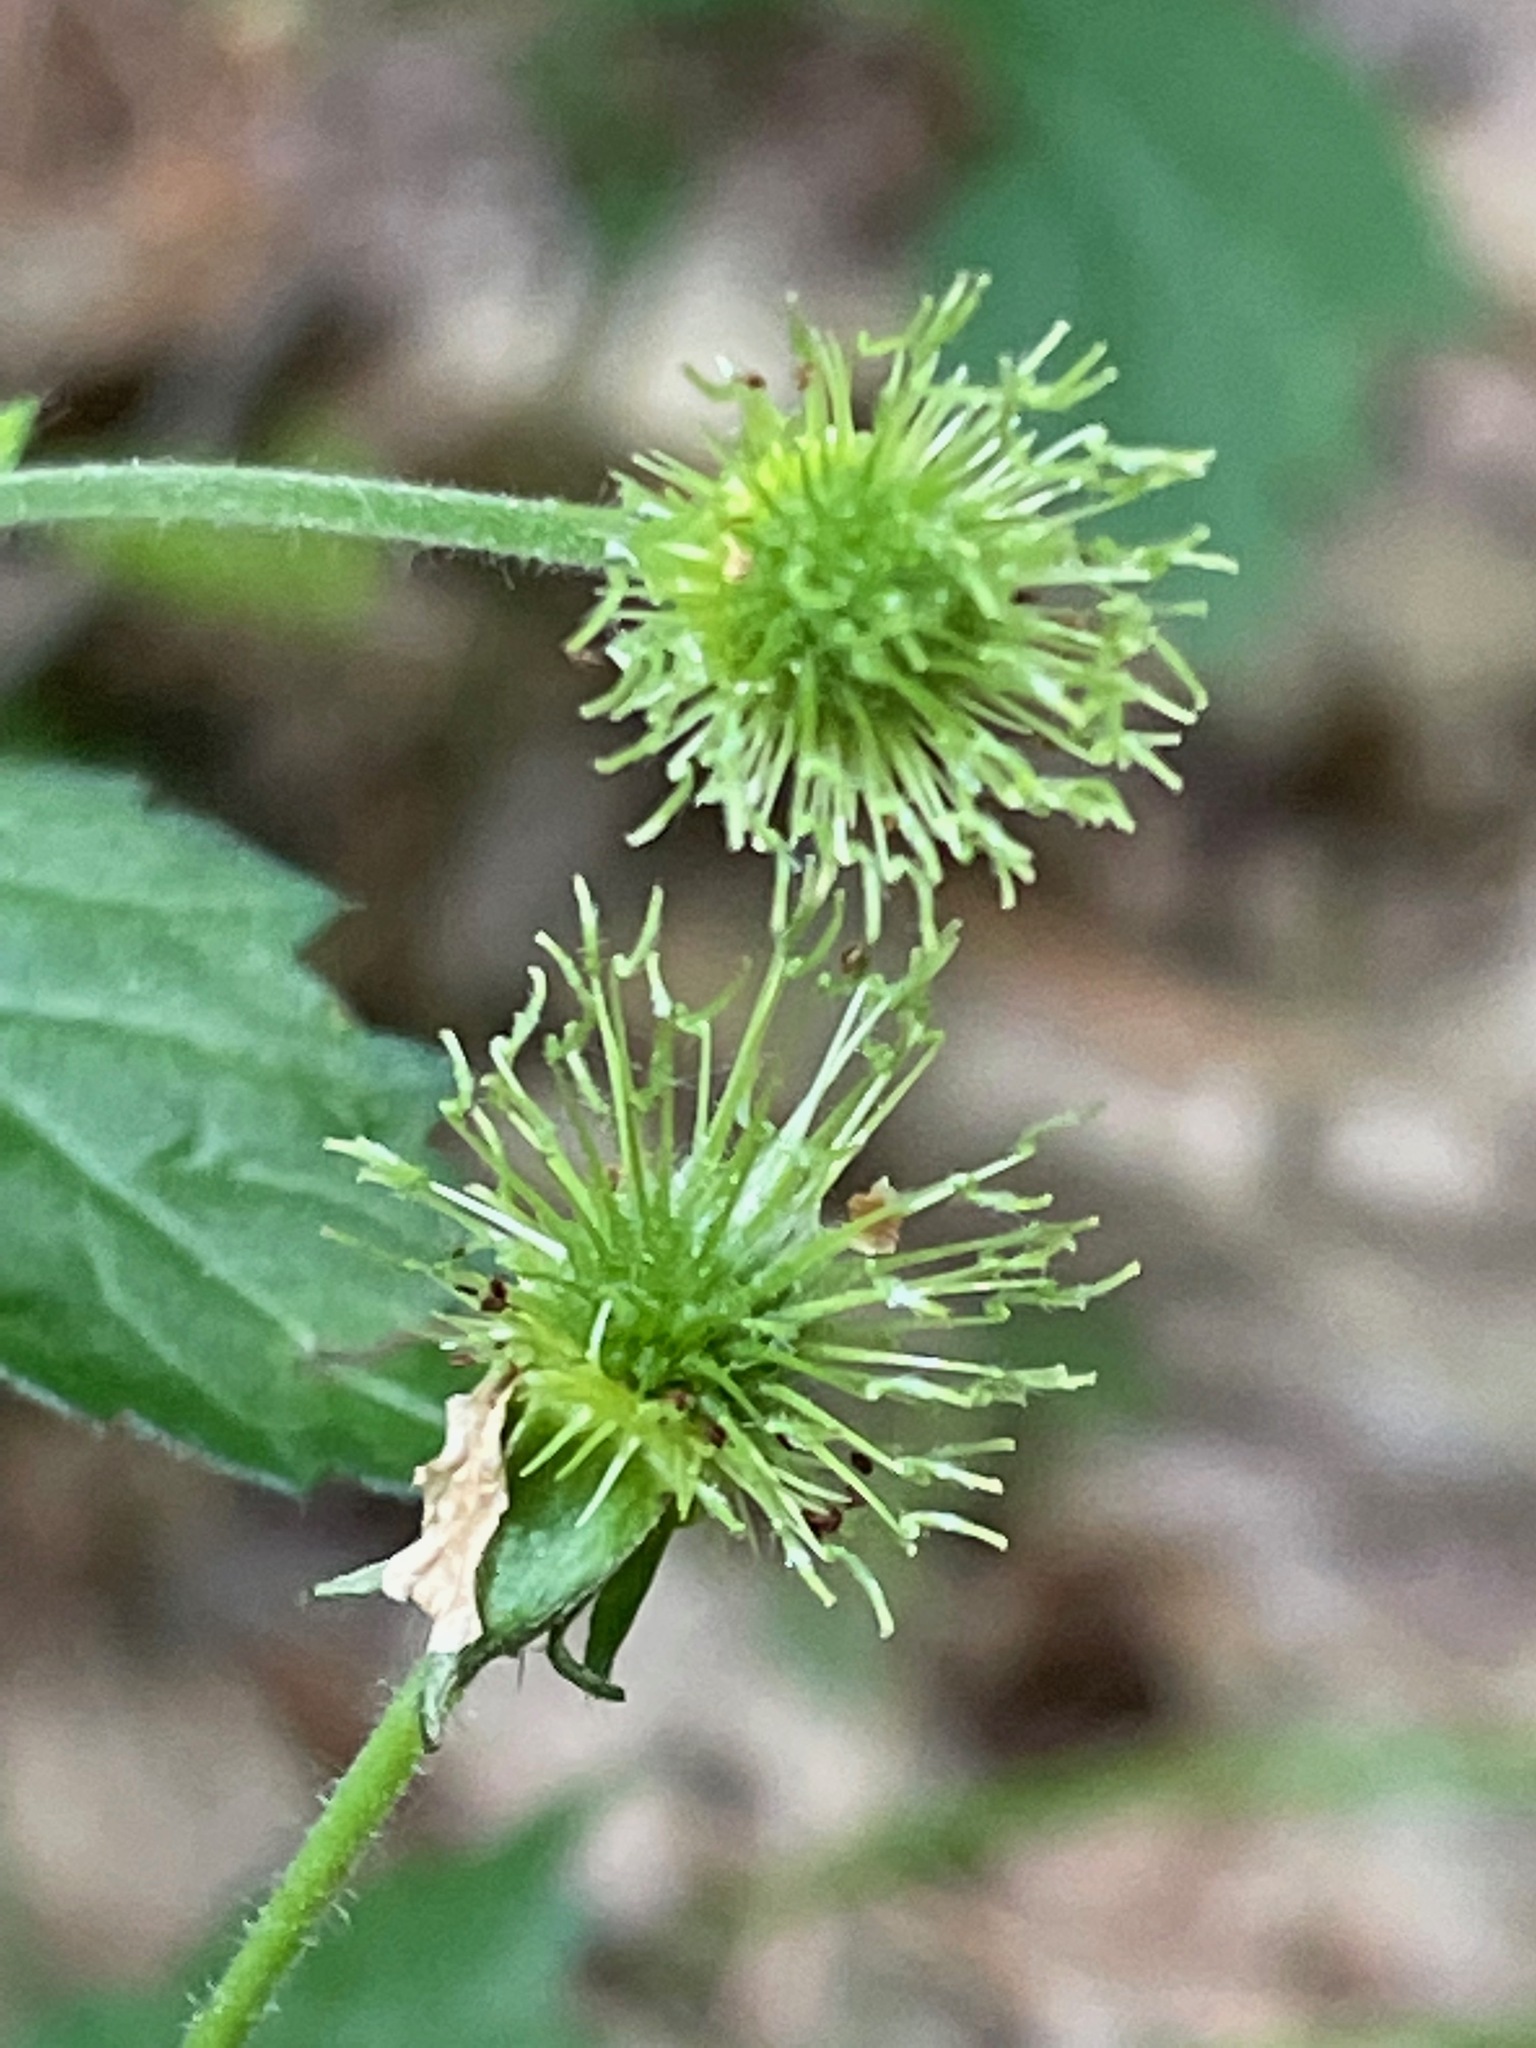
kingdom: Plantae
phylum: Tracheophyta
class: Magnoliopsida
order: Rosales
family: Rosaceae
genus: Geum
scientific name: Geum canadense
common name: White avens
